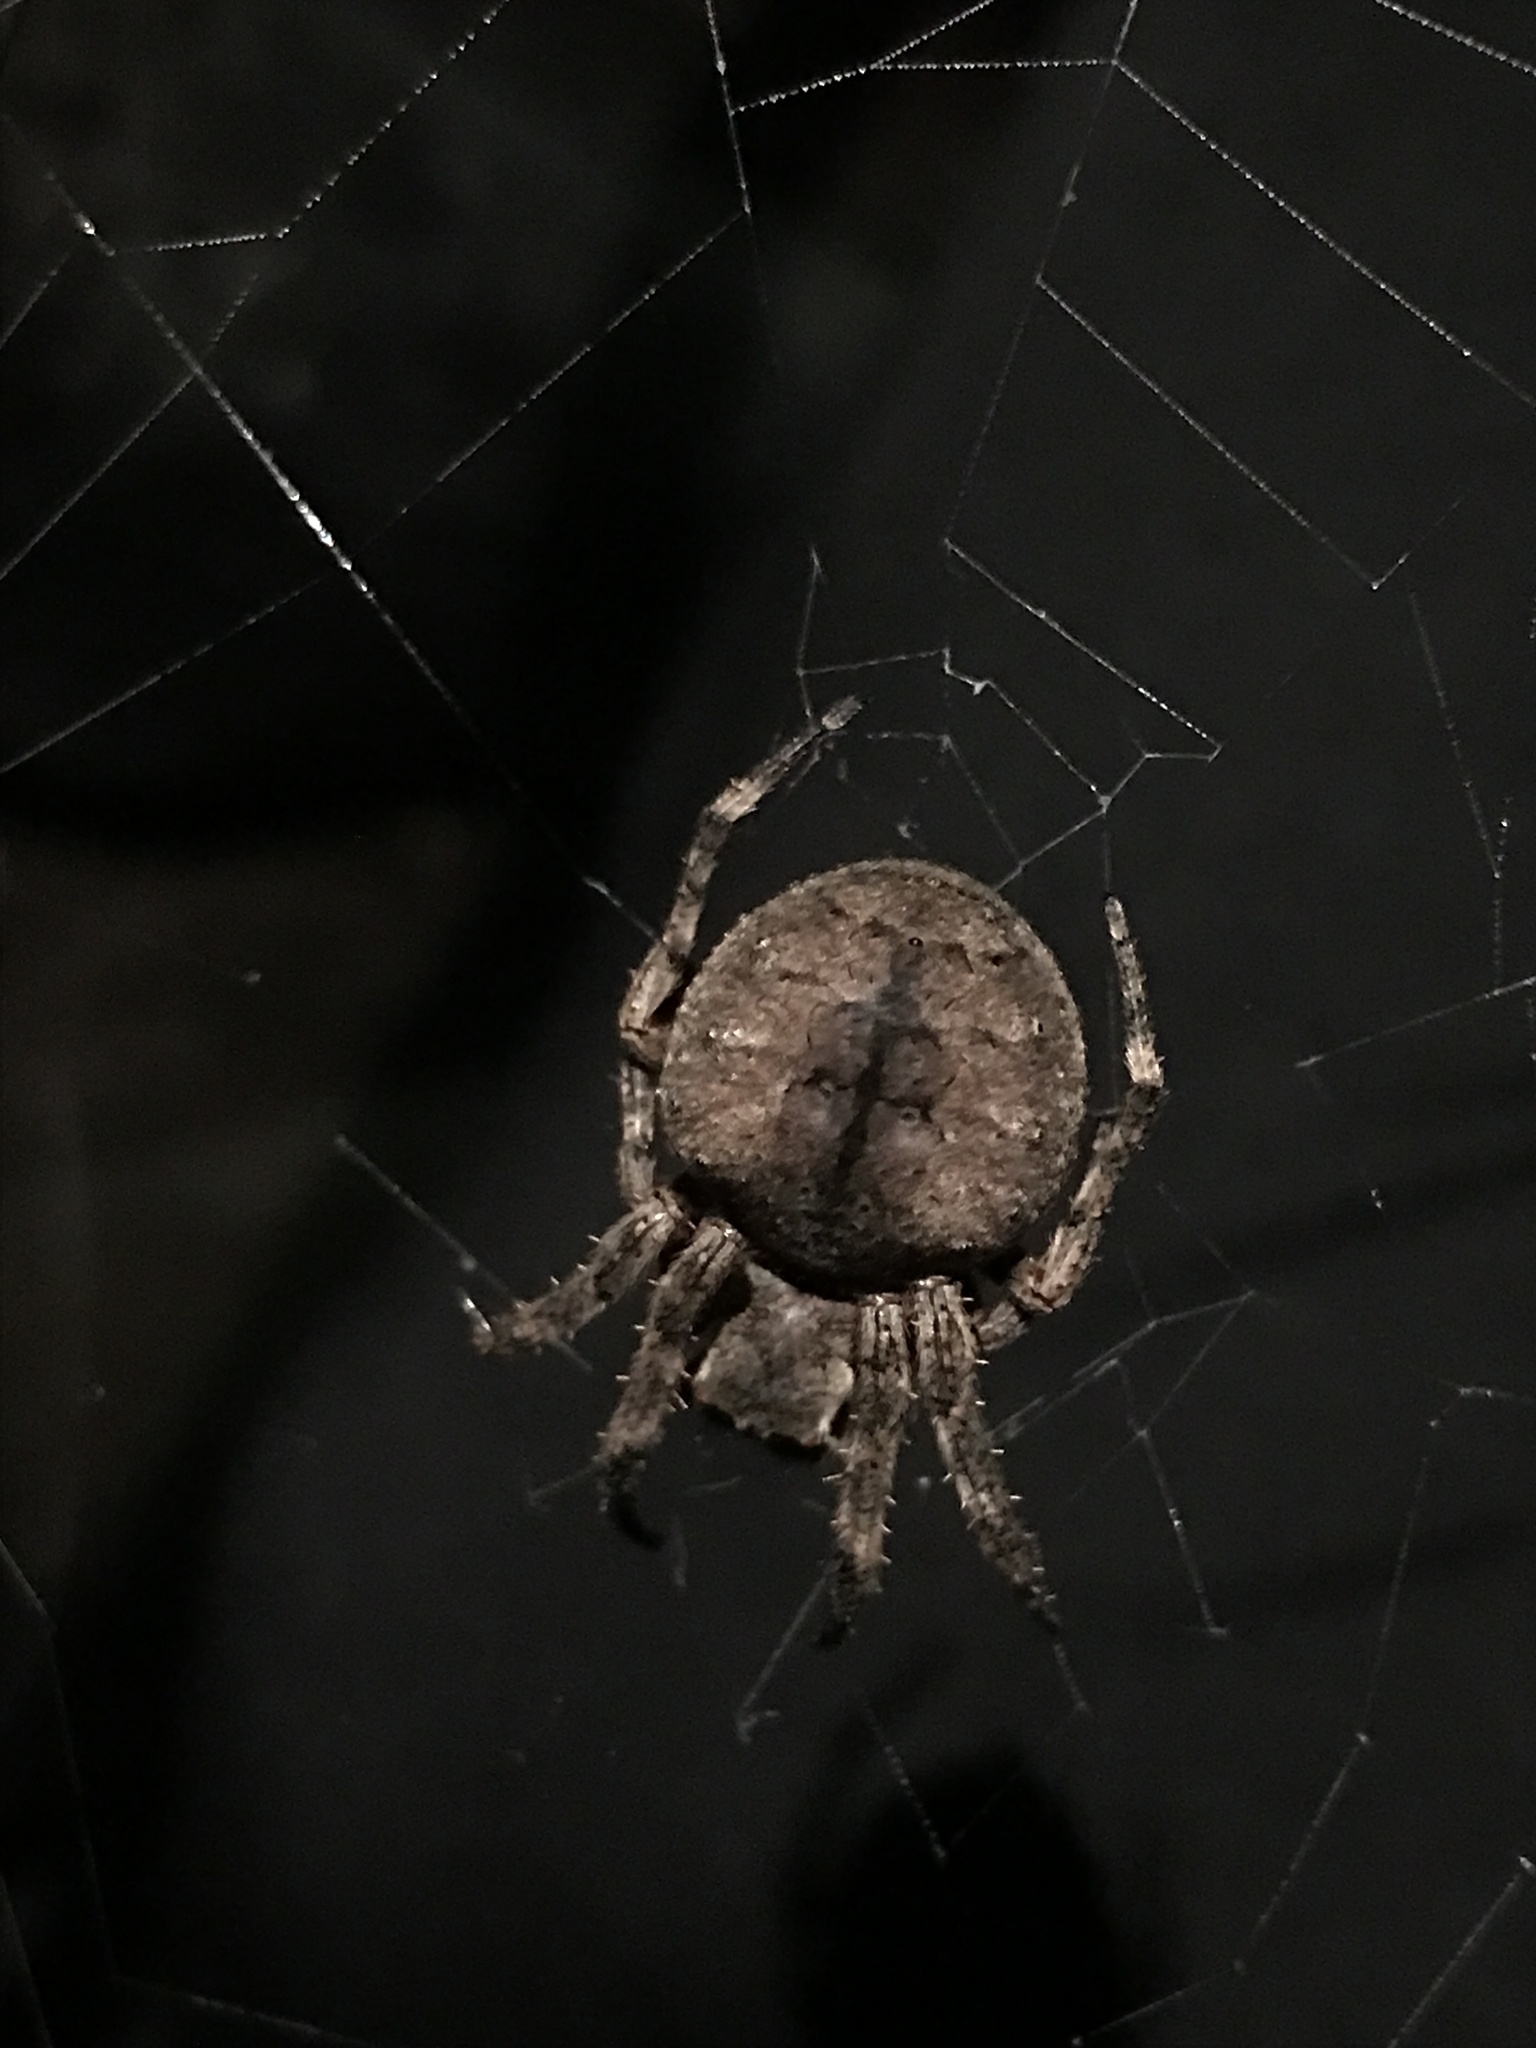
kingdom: Animalia
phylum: Arthropoda
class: Arachnida
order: Araneae
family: Araneidae
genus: Parawixia
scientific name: Parawixia audax
